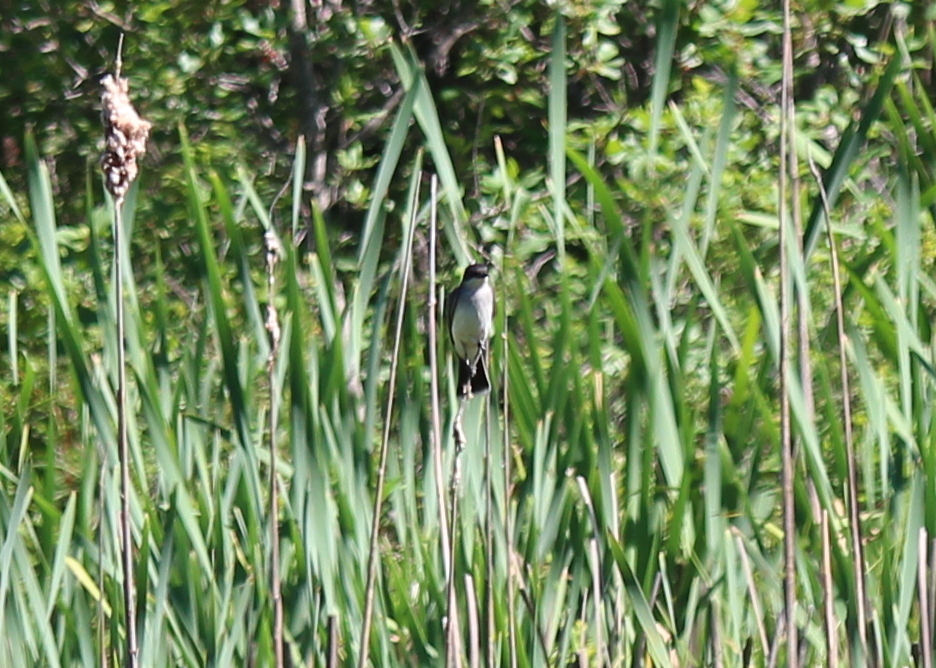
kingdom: Animalia
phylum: Chordata
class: Aves
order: Passeriformes
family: Tyrannidae
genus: Tyrannus
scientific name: Tyrannus tyrannus
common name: Eastern kingbird
